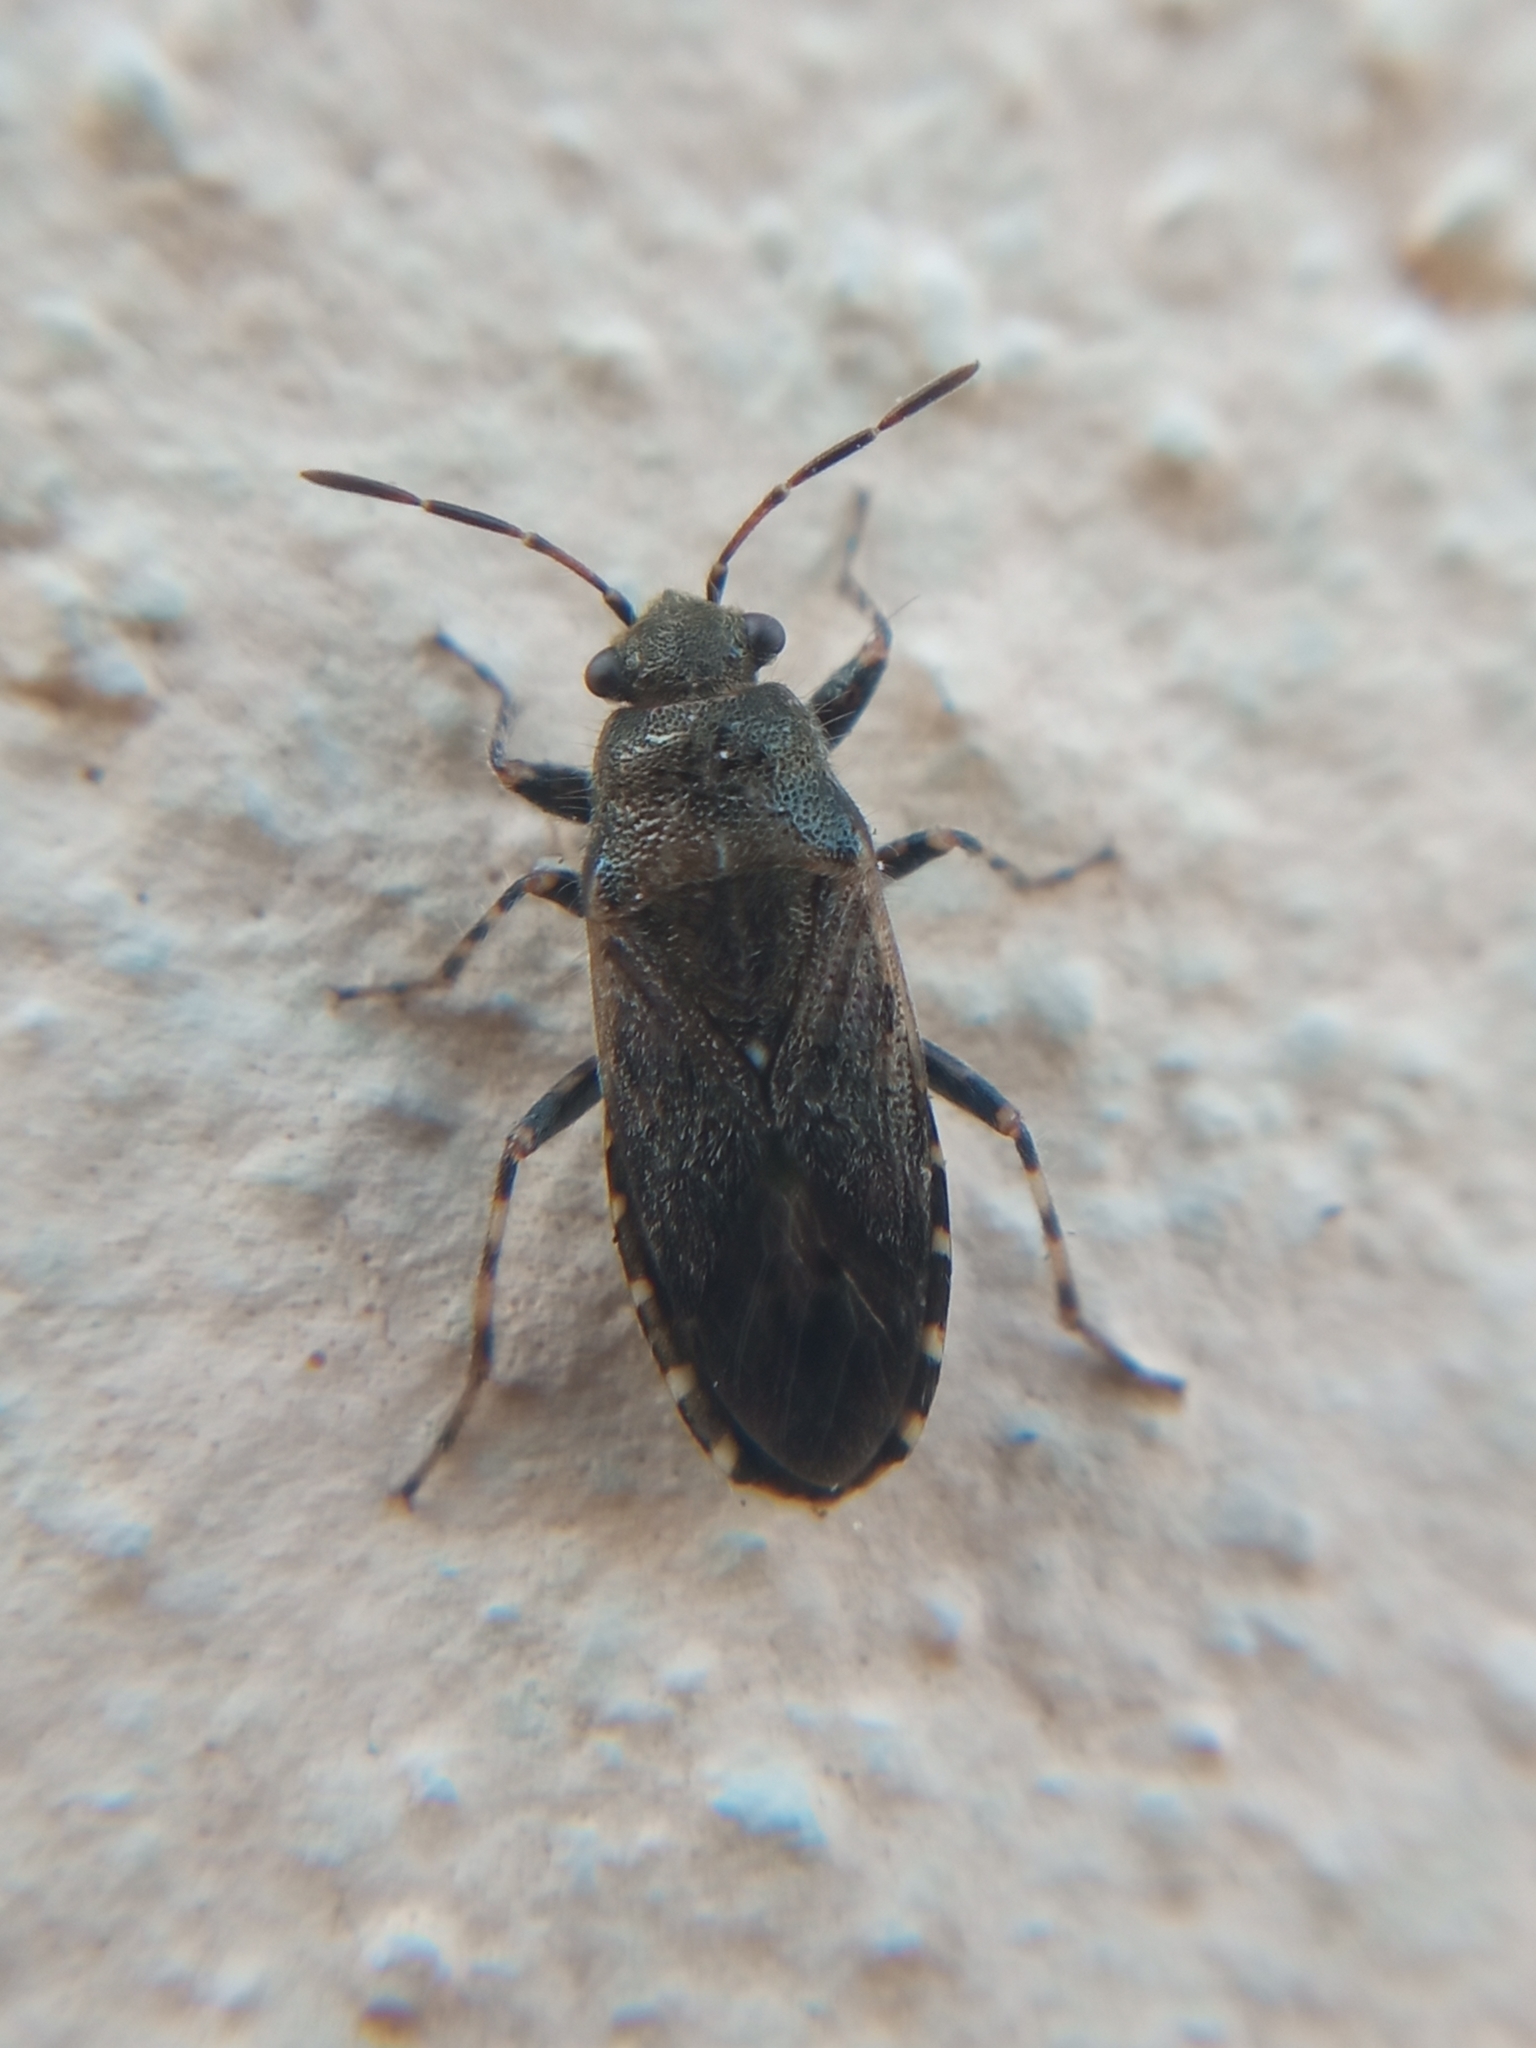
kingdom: Animalia
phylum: Arthropoda
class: Insecta
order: Hemiptera
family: Heterogastridae
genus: Heterogaster
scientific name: Heterogaster urticae
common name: Seed bug
